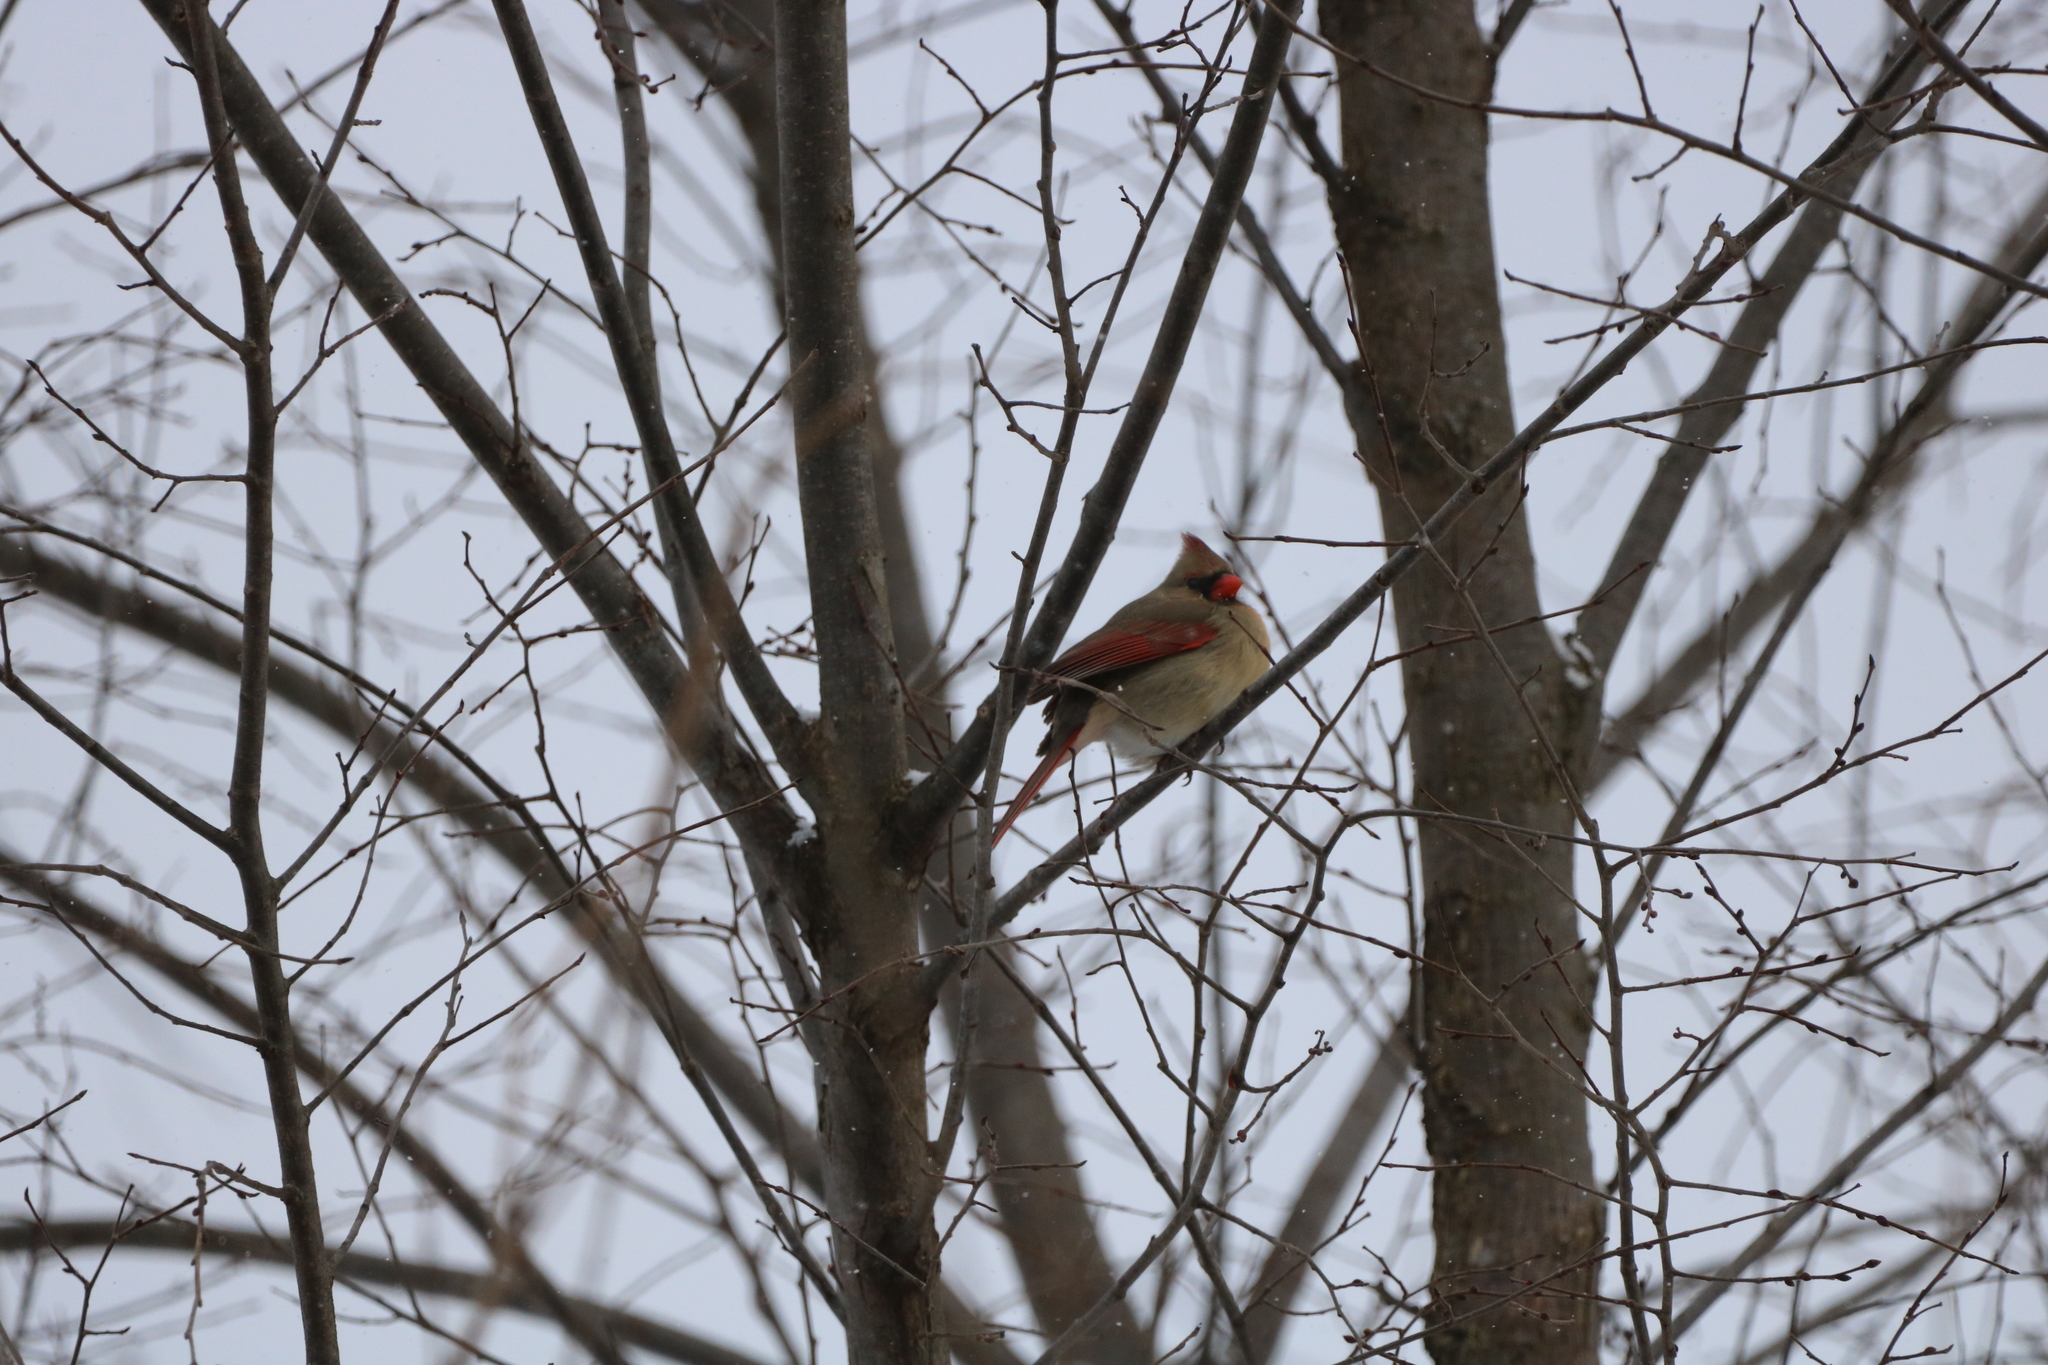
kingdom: Animalia
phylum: Chordata
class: Aves
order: Passeriformes
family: Cardinalidae
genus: Cardinalis
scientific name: Cardinalis cardinalis
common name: Northern cardinal
